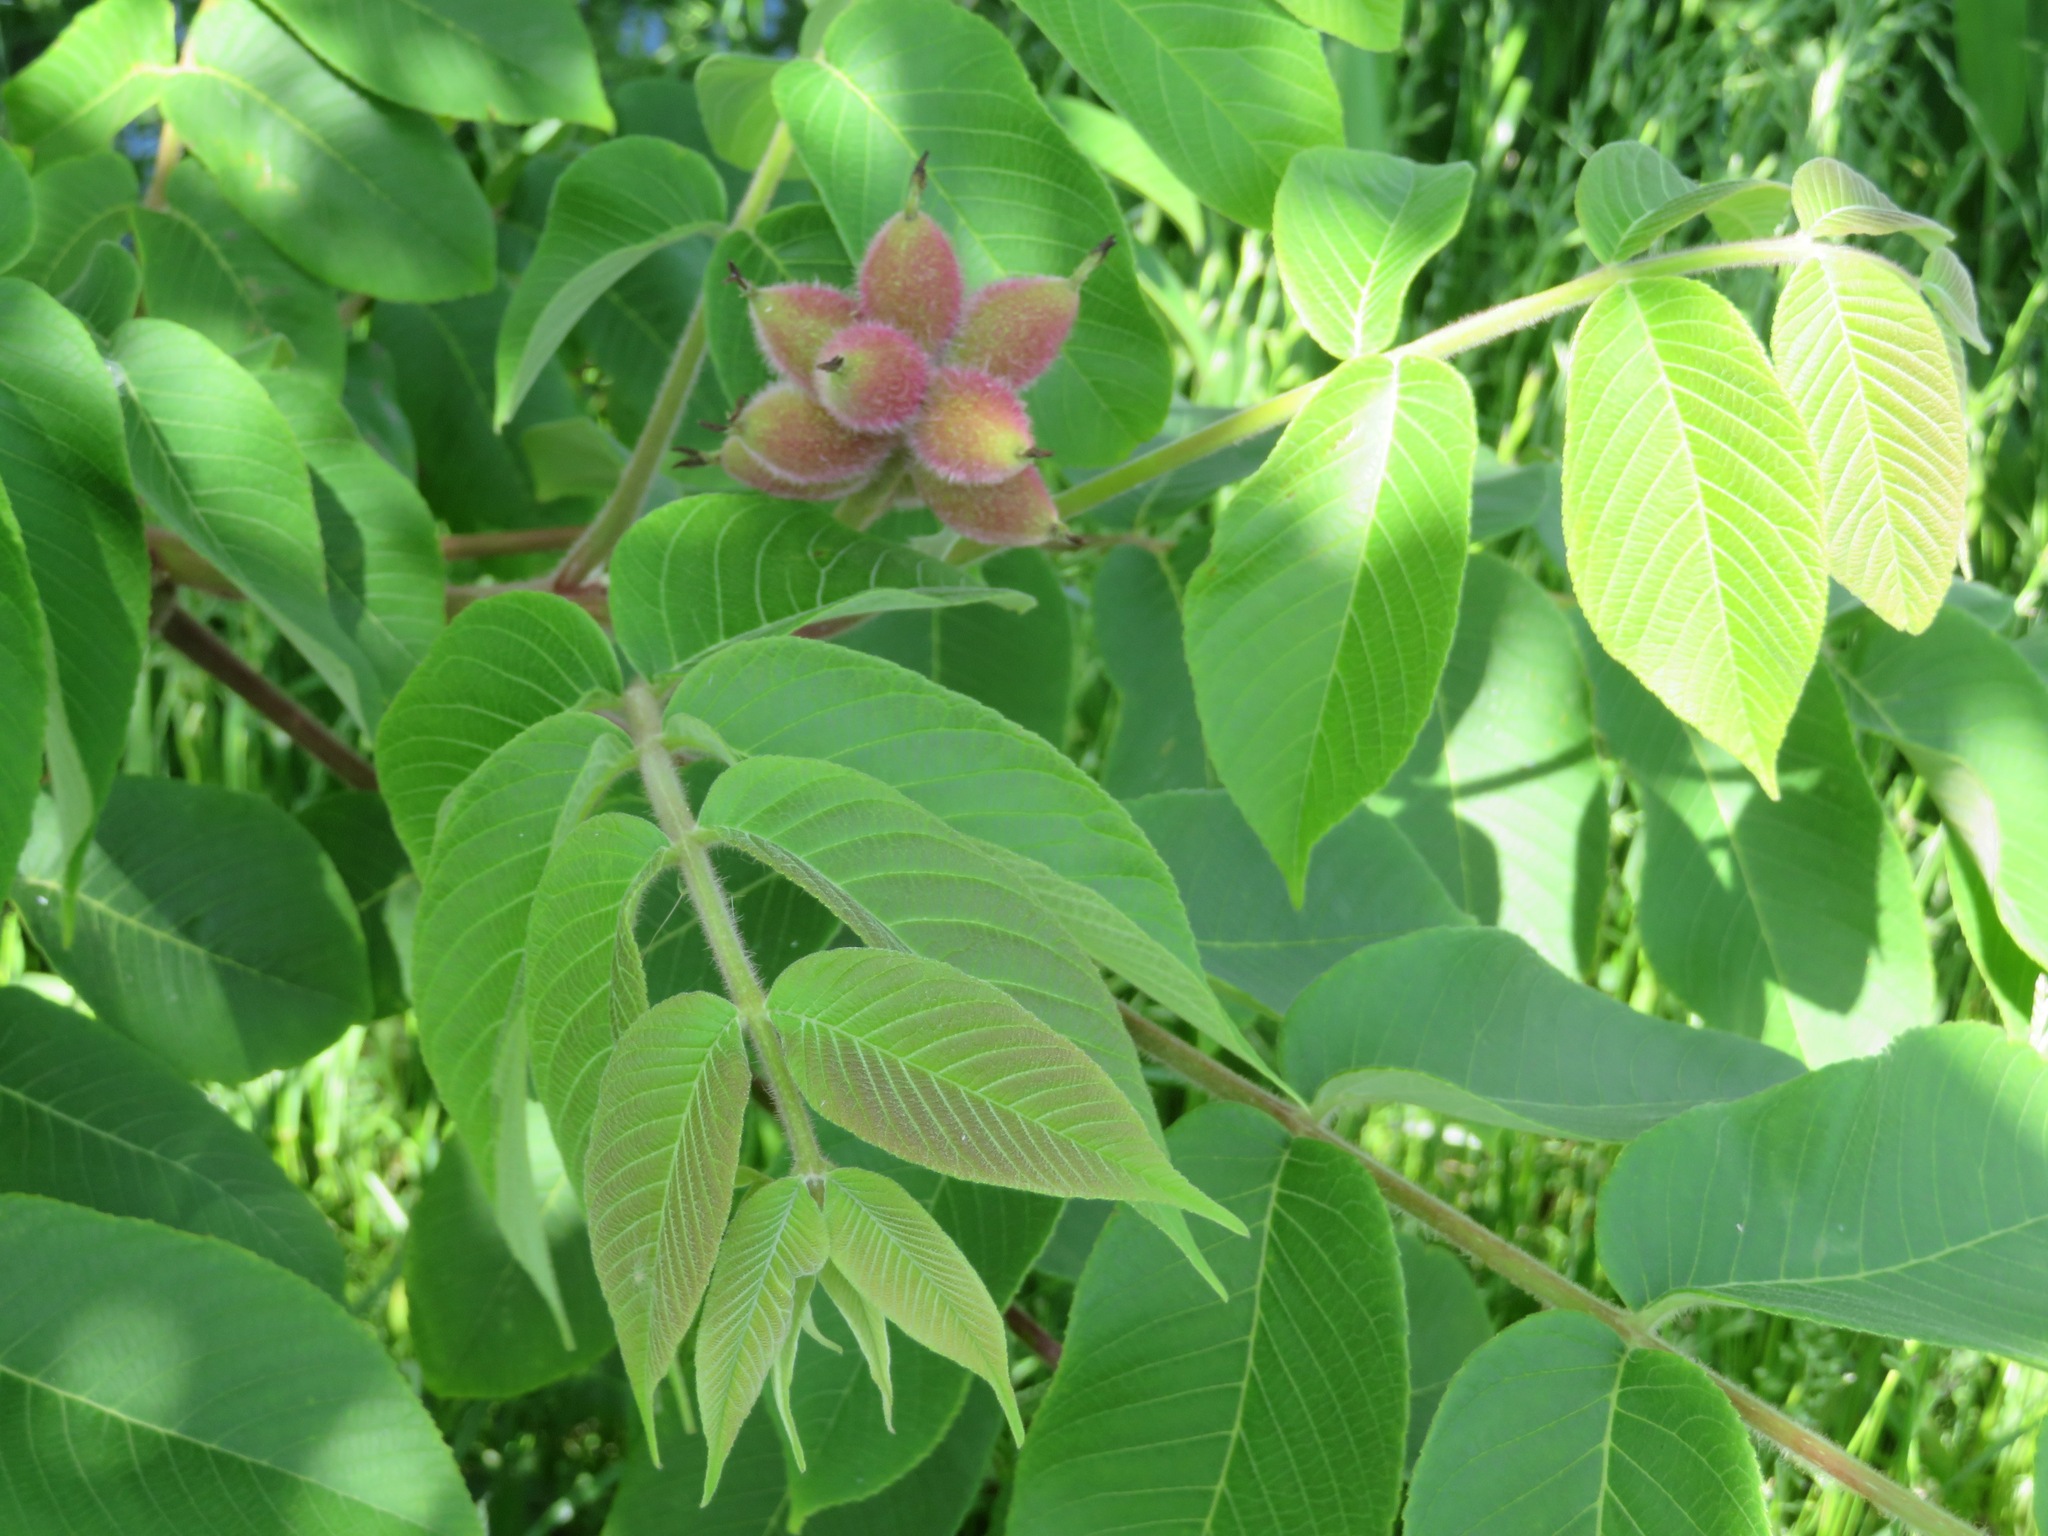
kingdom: Plantae
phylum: Tracheophyta
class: Magnoliopsida
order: Fagales
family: Juglandaceae
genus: Juglans
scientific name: Juglans ailantifolia
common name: Japanese walnut
